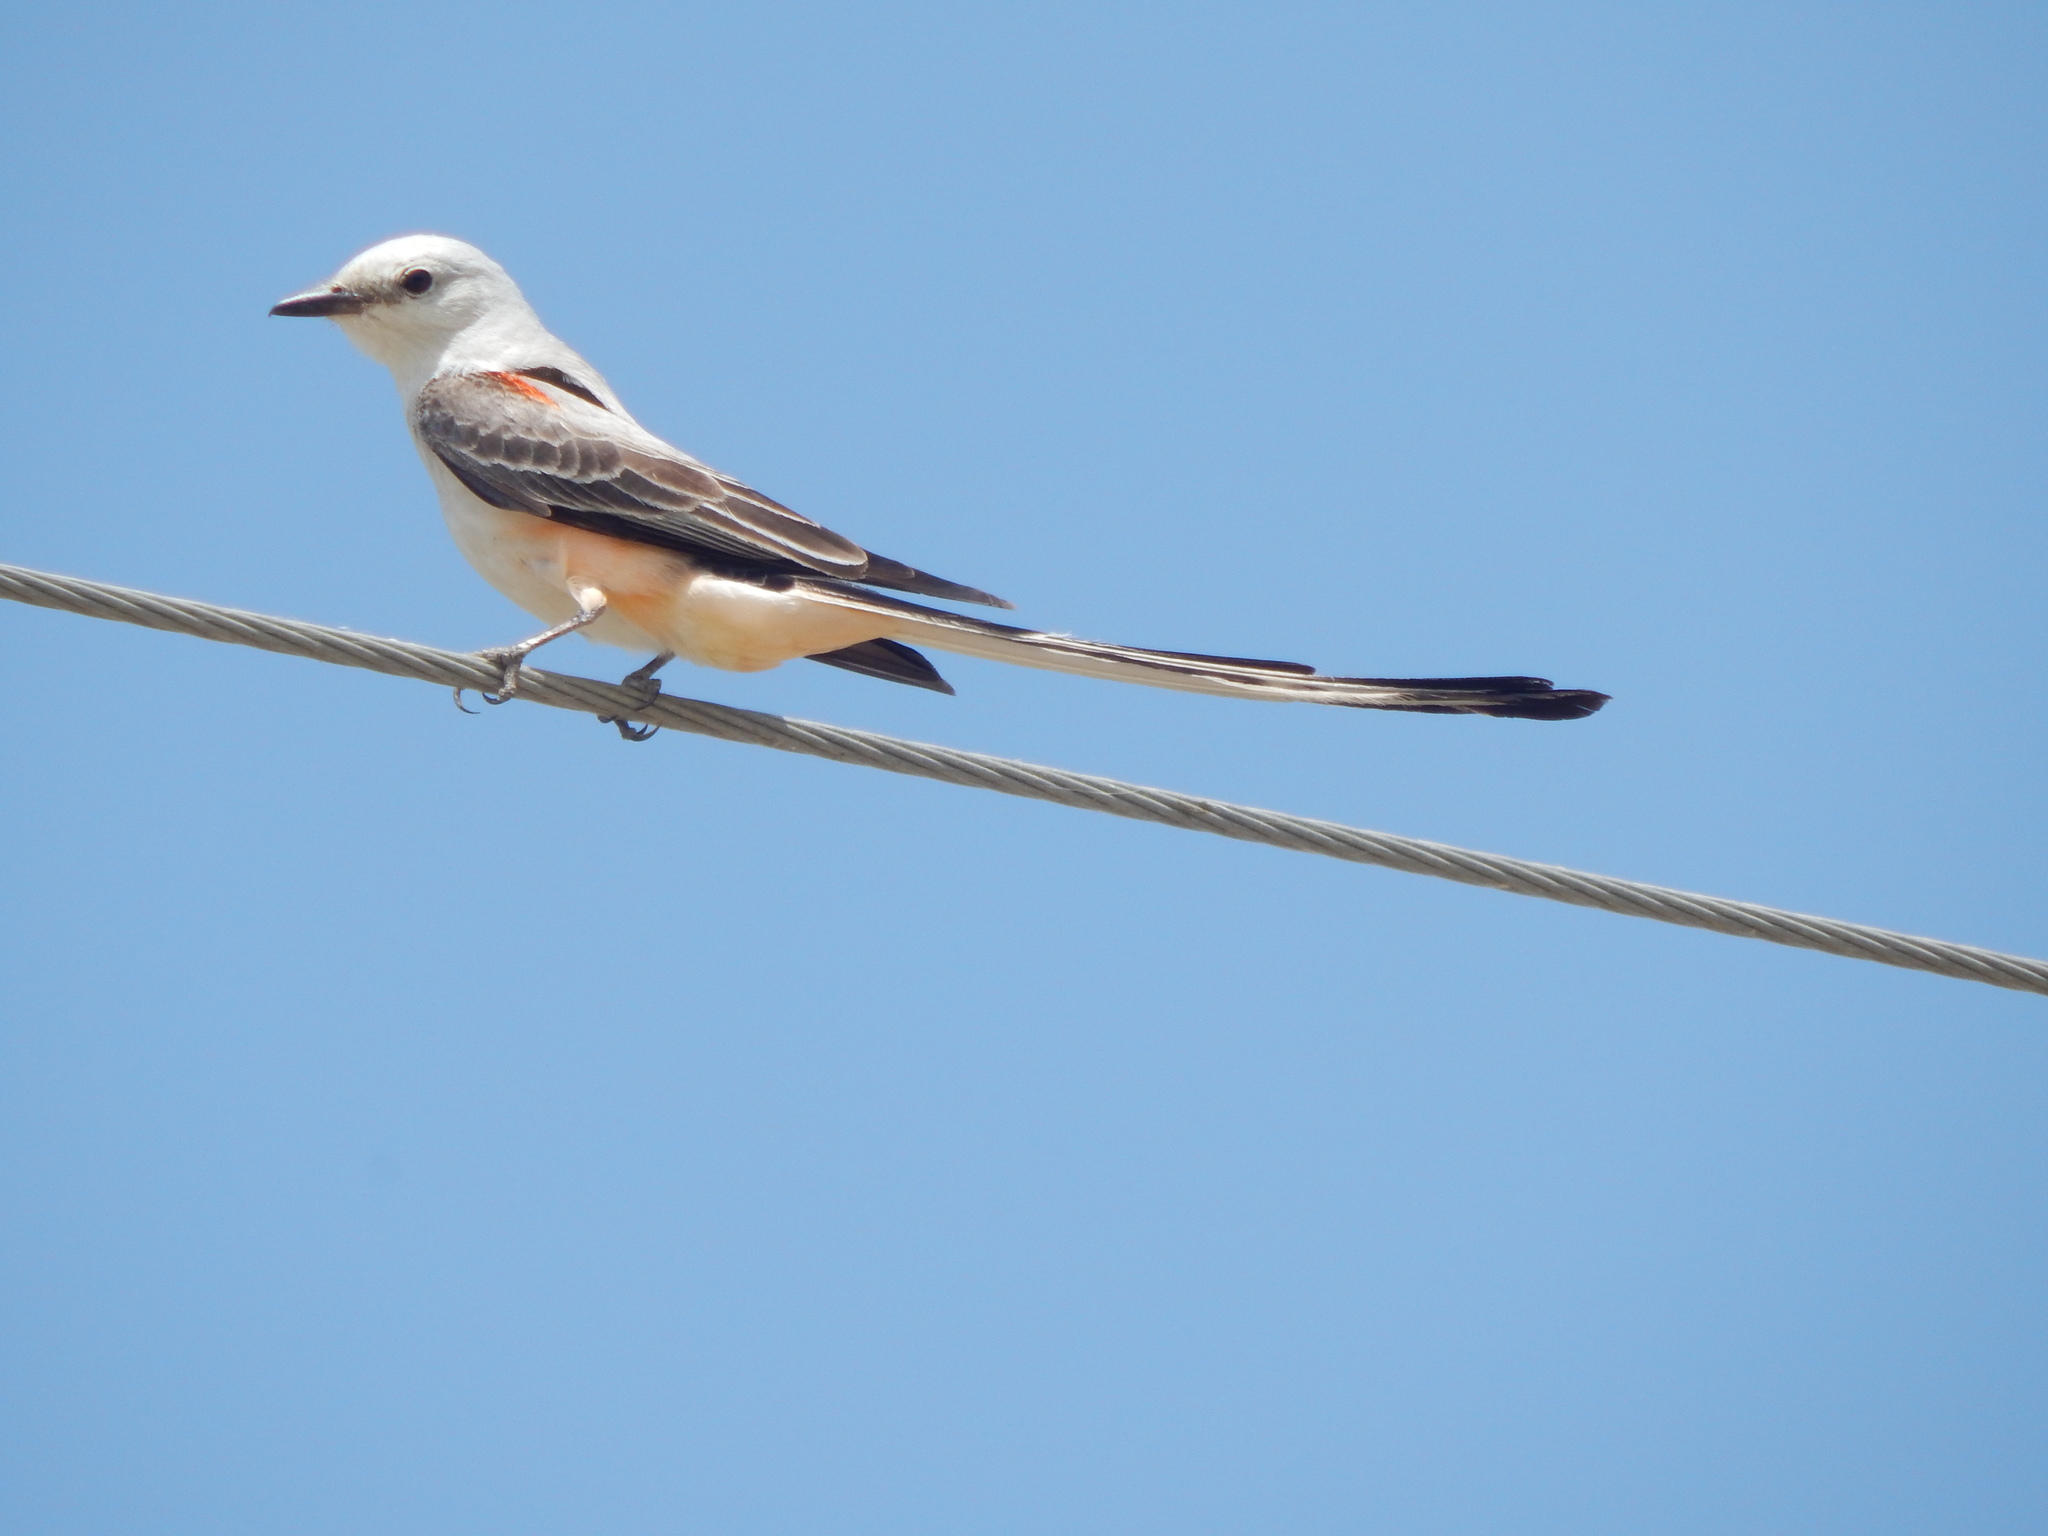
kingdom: Animalia
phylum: Chordata
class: Aves
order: Passeriformes
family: Tyrannidae
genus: Tyrannus
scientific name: Tyrannus forficatus
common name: Scissor-tailed flycatcher
